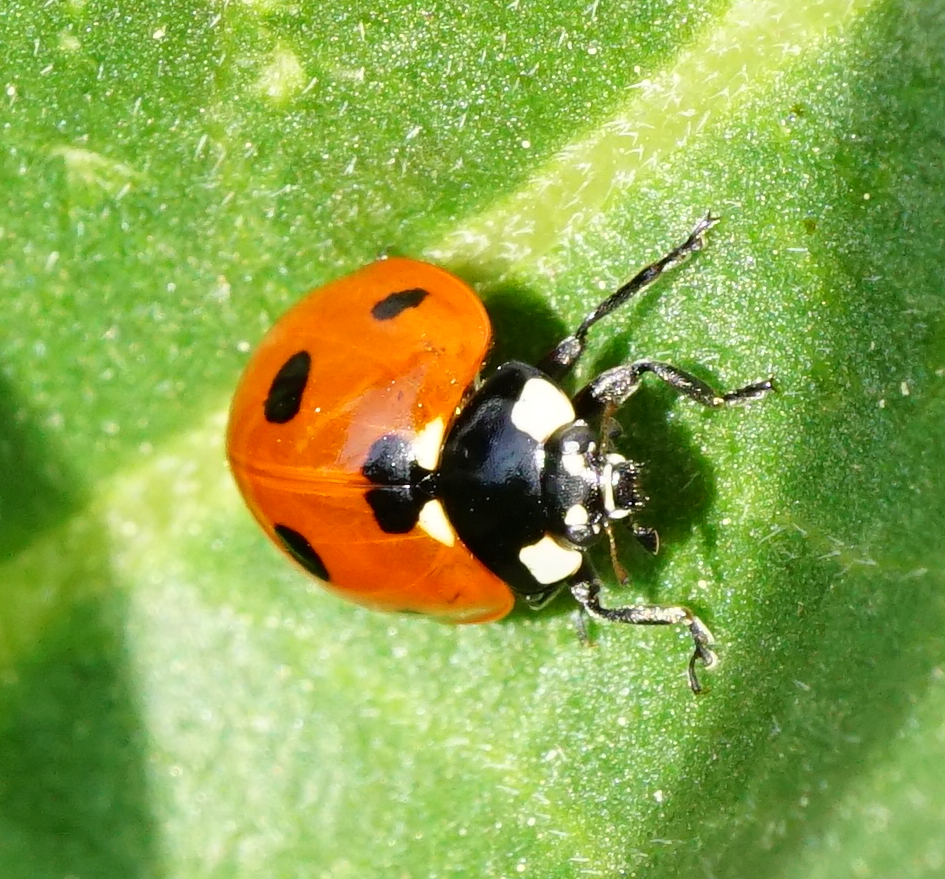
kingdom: Animalia
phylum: Arthropoda
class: Insecta
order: Coleoptera
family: Coccinellidae
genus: Coccinella
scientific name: Coccinella septempunctata
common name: Sevenspotted lady beetle
